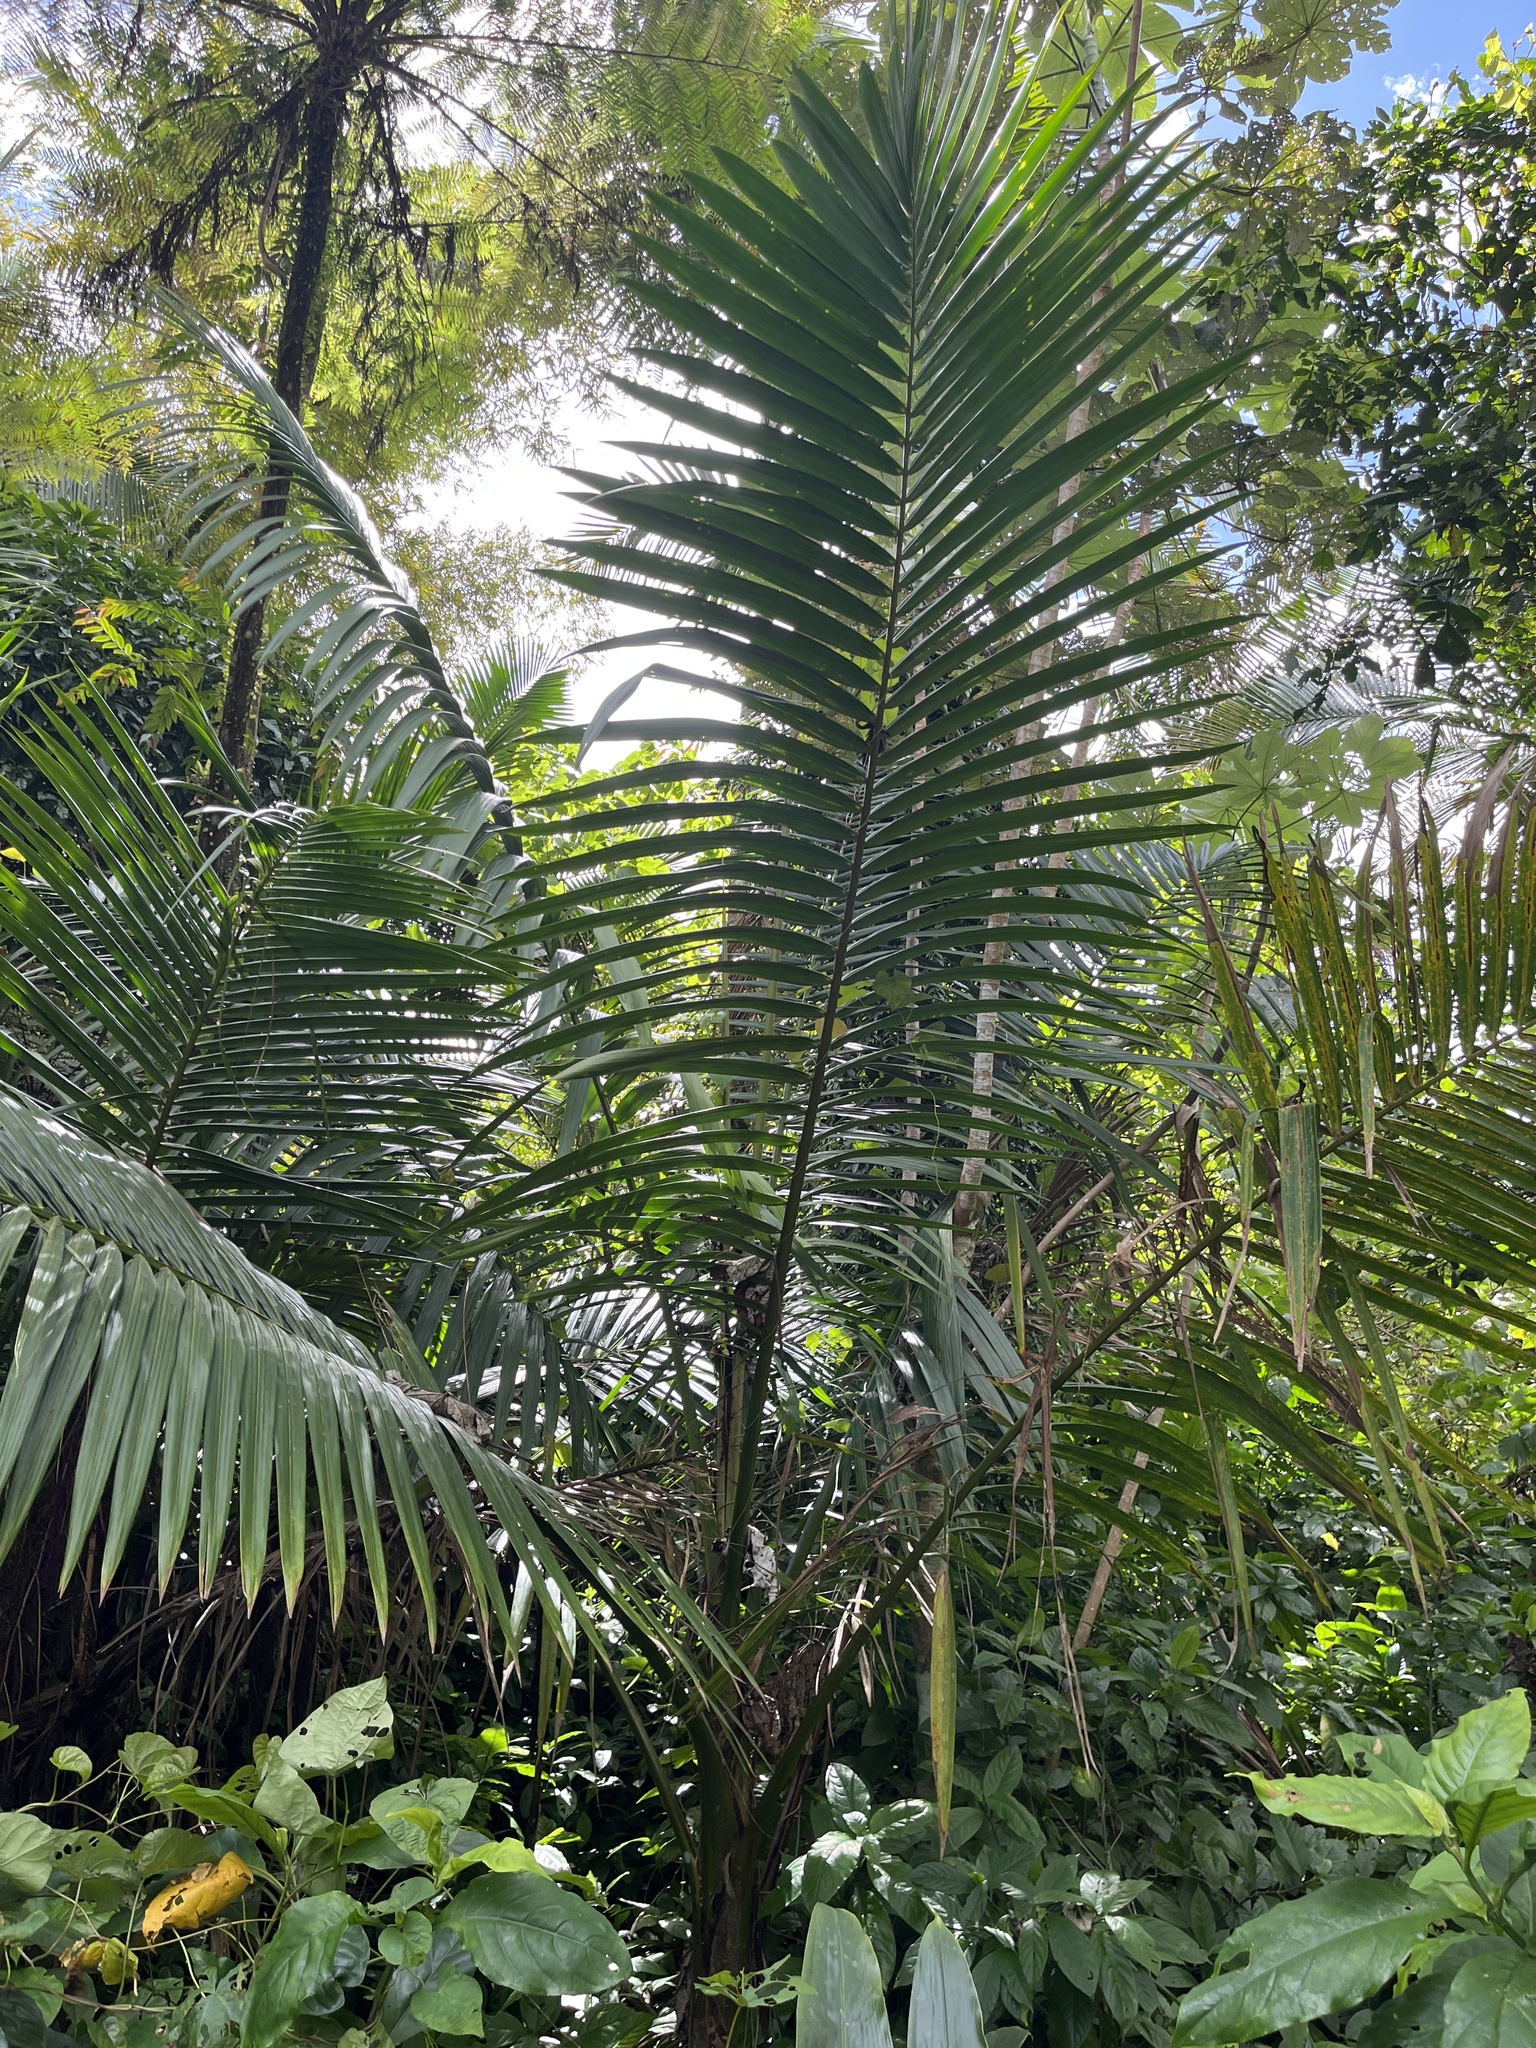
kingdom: Plantae
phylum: Tracheophyta
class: Liliopsida
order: Arecales
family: Arecaceae
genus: Prestoea
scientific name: Prestoea acuminata
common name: Sierran palm
